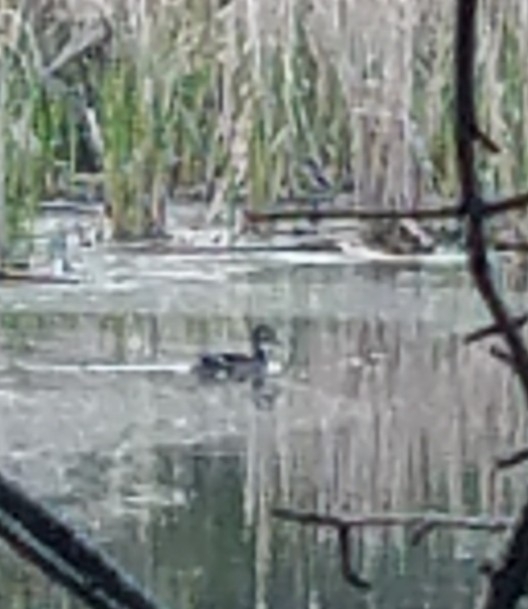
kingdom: Animalia
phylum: Chordata
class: Aves
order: Anseriformes
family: Anatidae
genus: Aix
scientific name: Aix sponsa
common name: Wood duck
